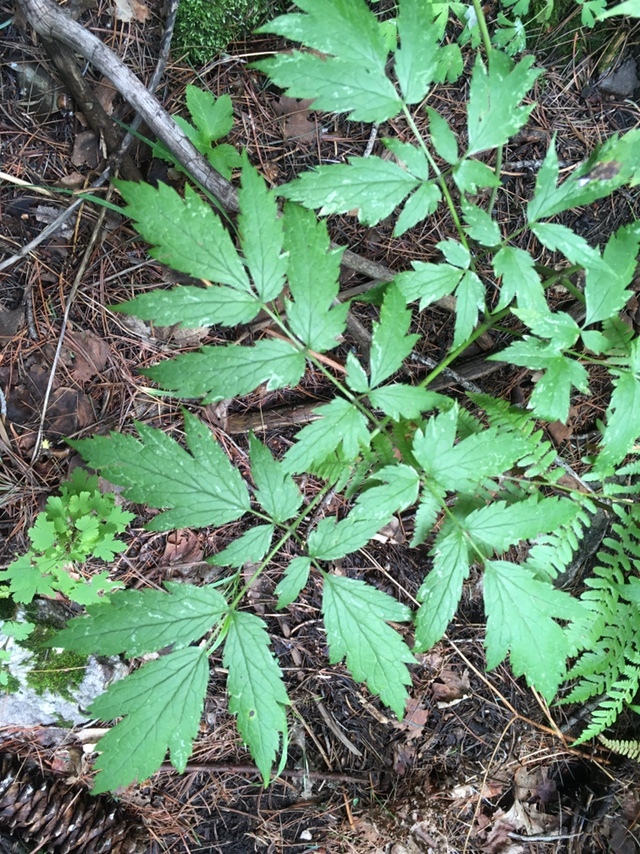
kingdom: Plantae
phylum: Tracheophyta
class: Magnoliopsida
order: Ranunculales
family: Ranunculaceae
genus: Actaea
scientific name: Actaea rubra
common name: Red baneberry
